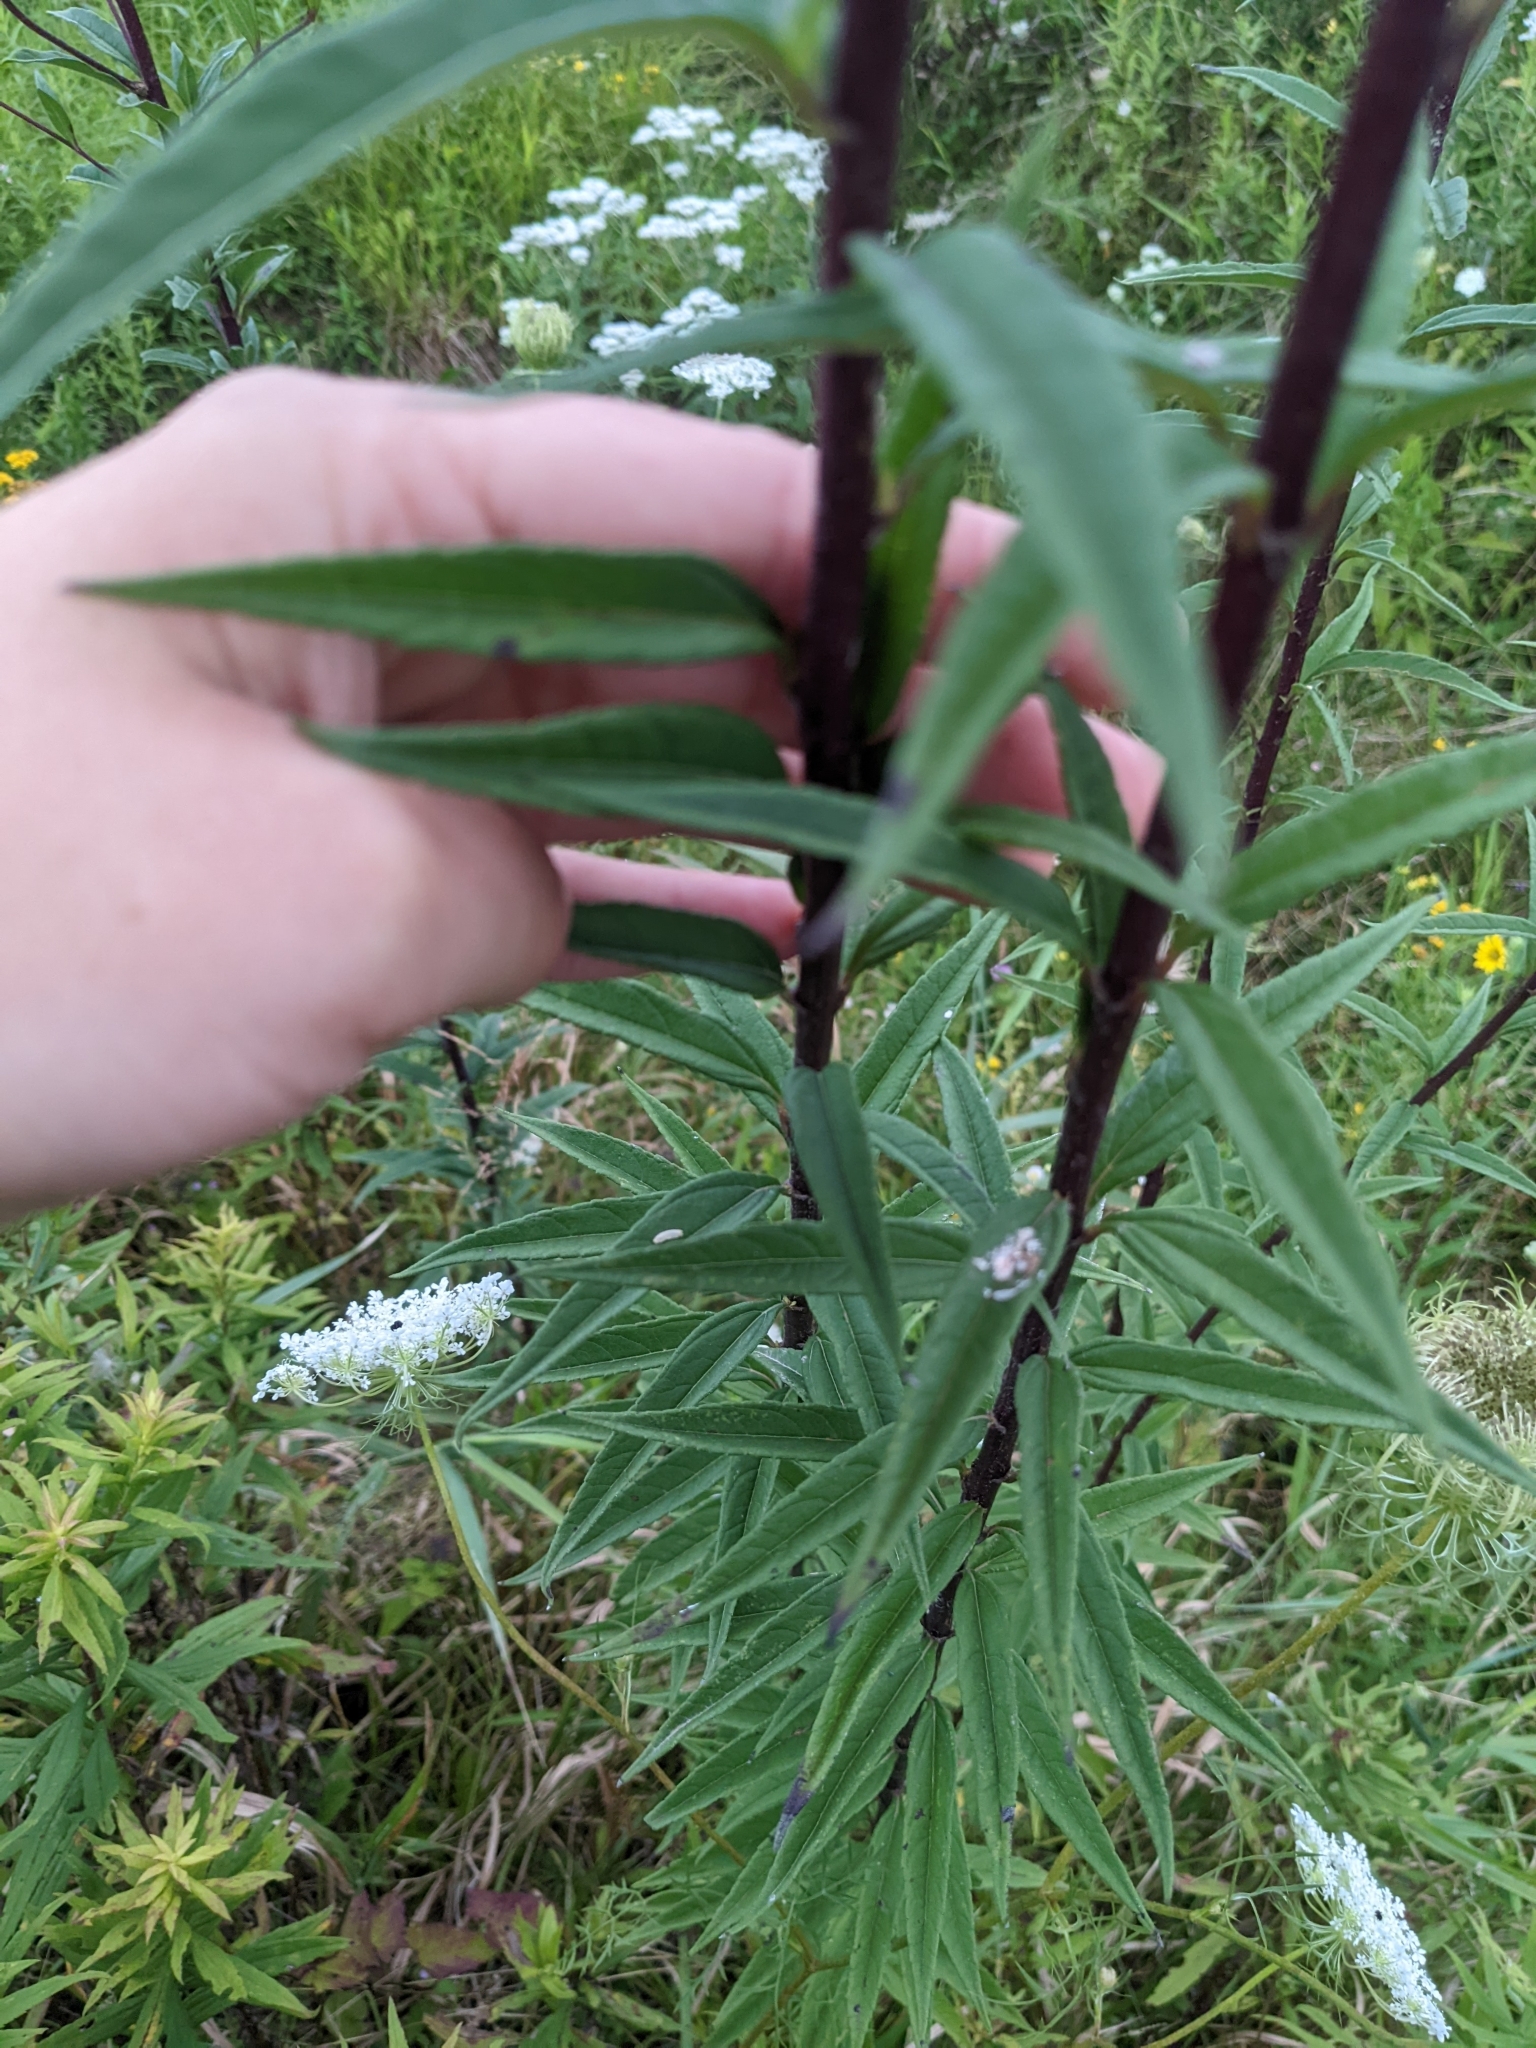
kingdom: Plantae
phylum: Tracheophyta
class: Magnoliopsida
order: Asterales
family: Asteraceae
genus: Helianthus
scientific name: Helianthus giganteus
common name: Giant sunflower
